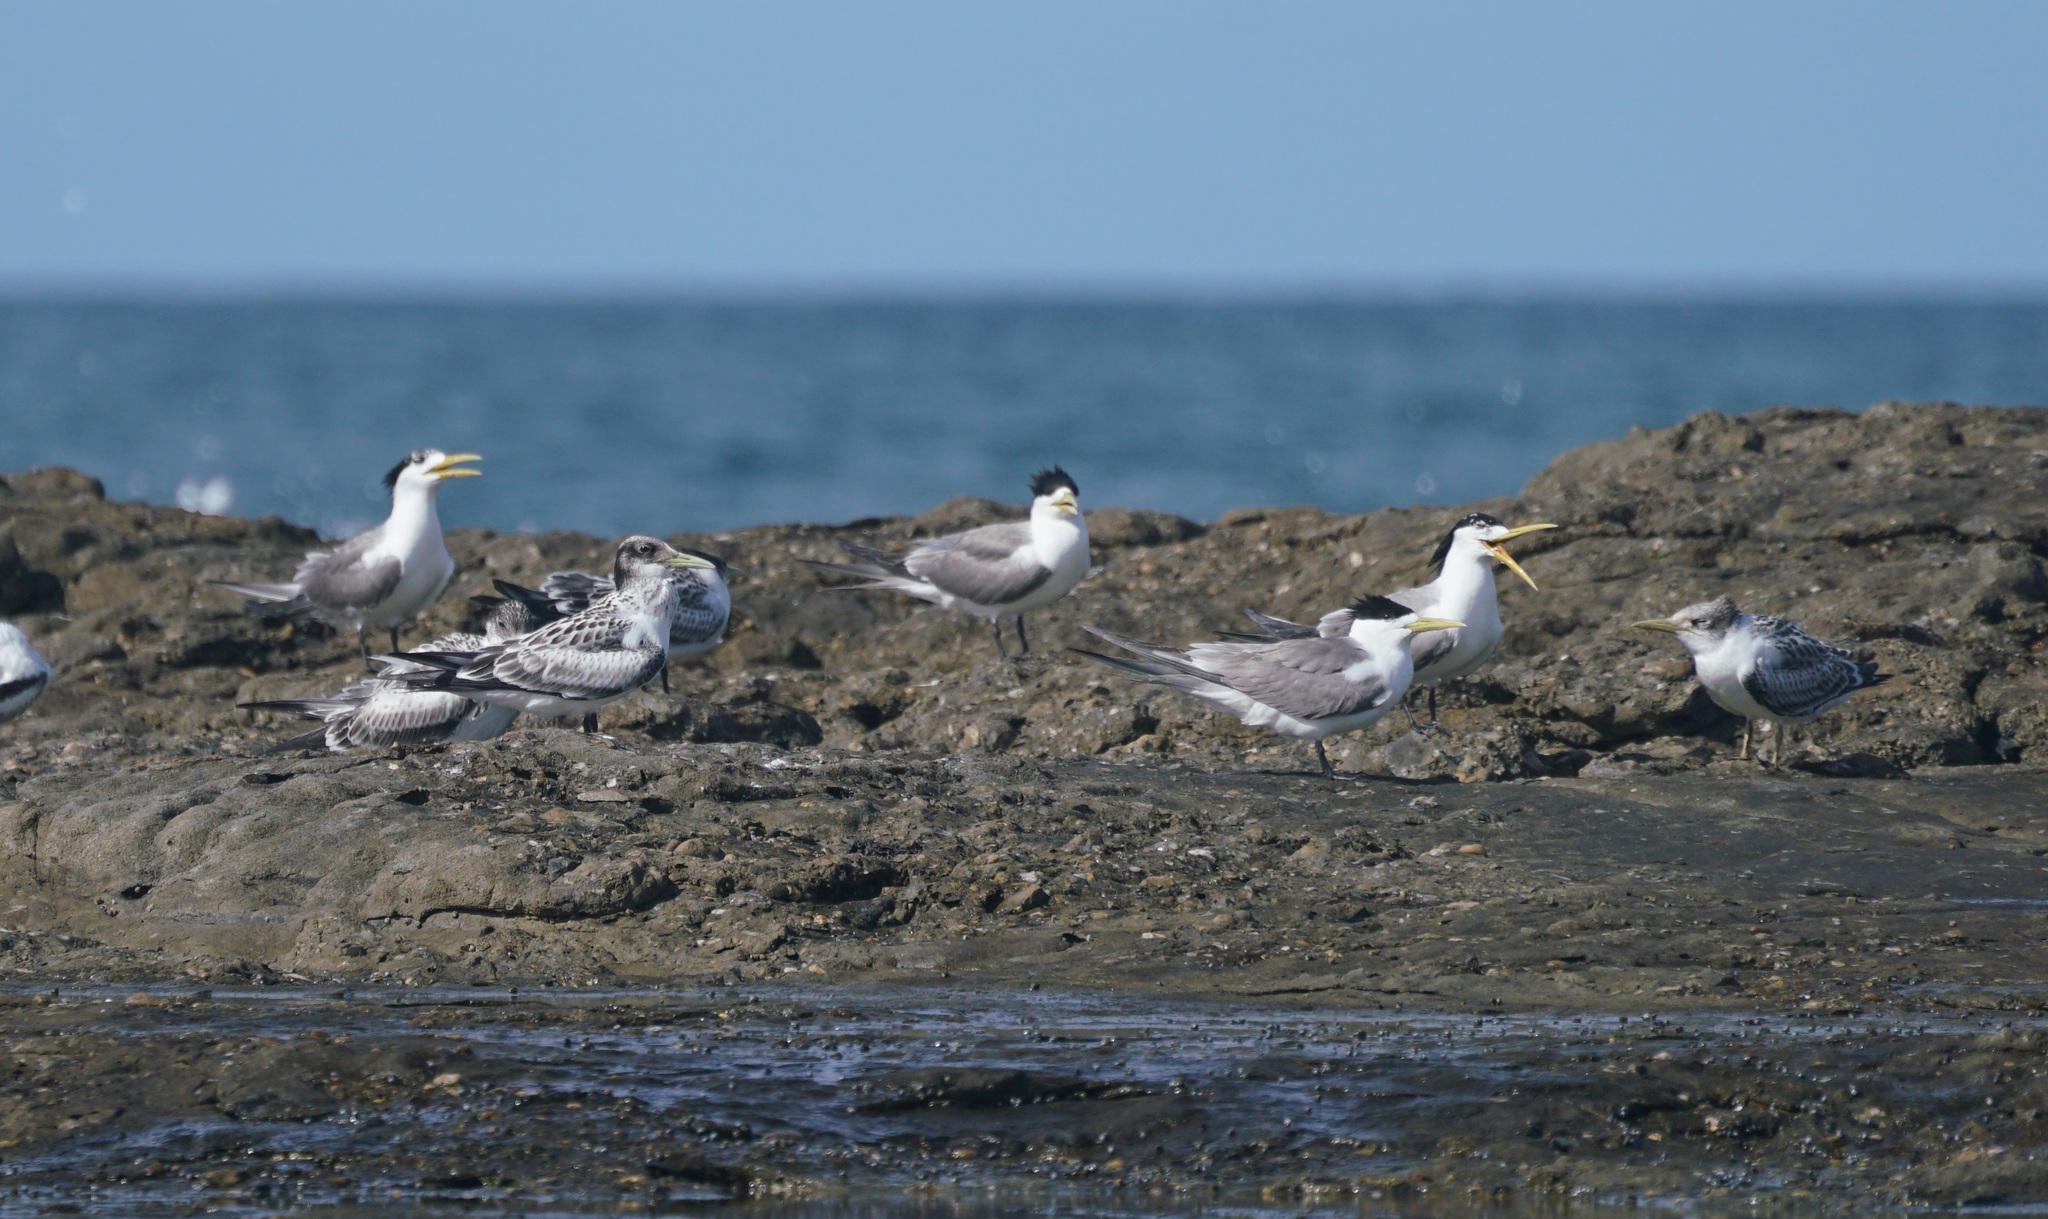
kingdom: Animalia
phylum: Chordata
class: Aves
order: Charadriiformes
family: Laridae
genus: Thalasseus
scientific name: Thalasseus bergii
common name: Greater crested tern
